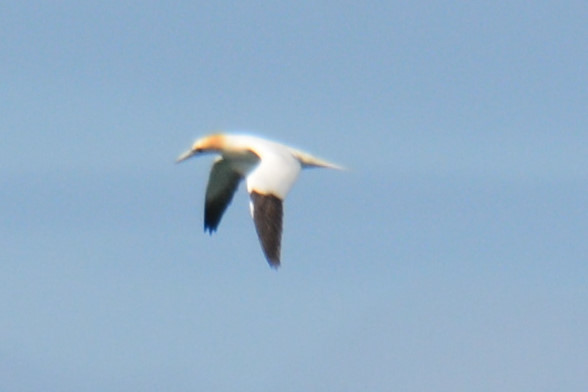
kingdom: Animalia
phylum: Chordata
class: Aves
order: Suliformes
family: Sulidae
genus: Morus
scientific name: Morus bassanus
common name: Northern gannet
